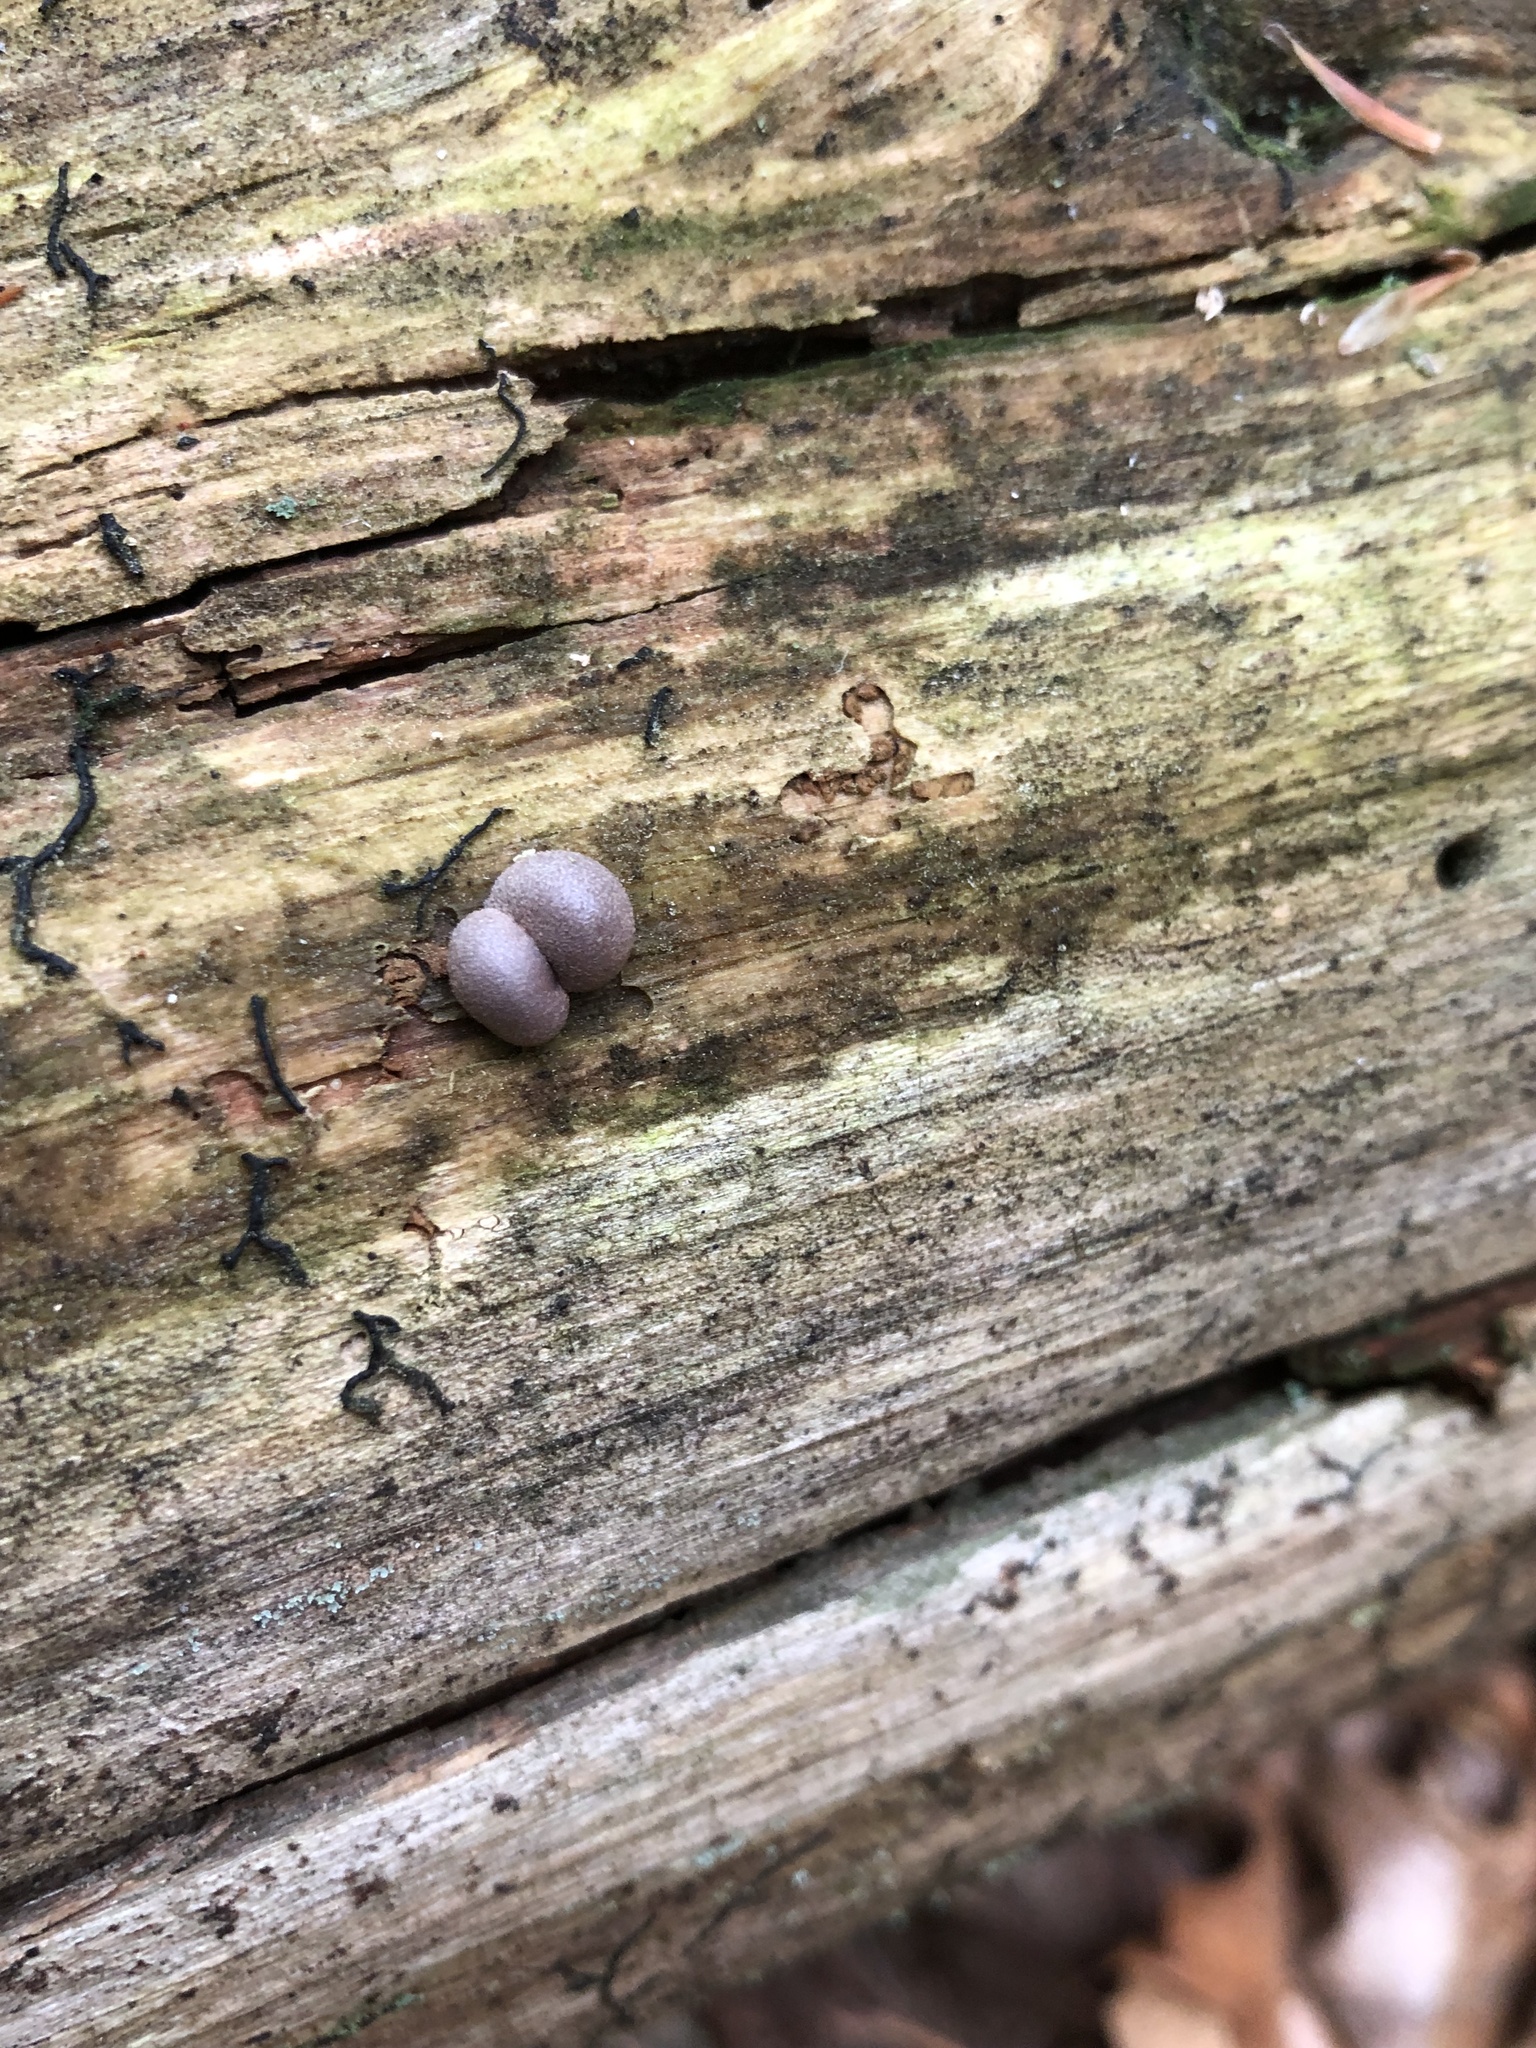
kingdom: Protozoa
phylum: Mycetozoa
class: Myxomycetes
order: Cribrariales
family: Tubiferaceae
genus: Lycogala
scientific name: Lycogala epidendrum
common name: Wolf's milk
